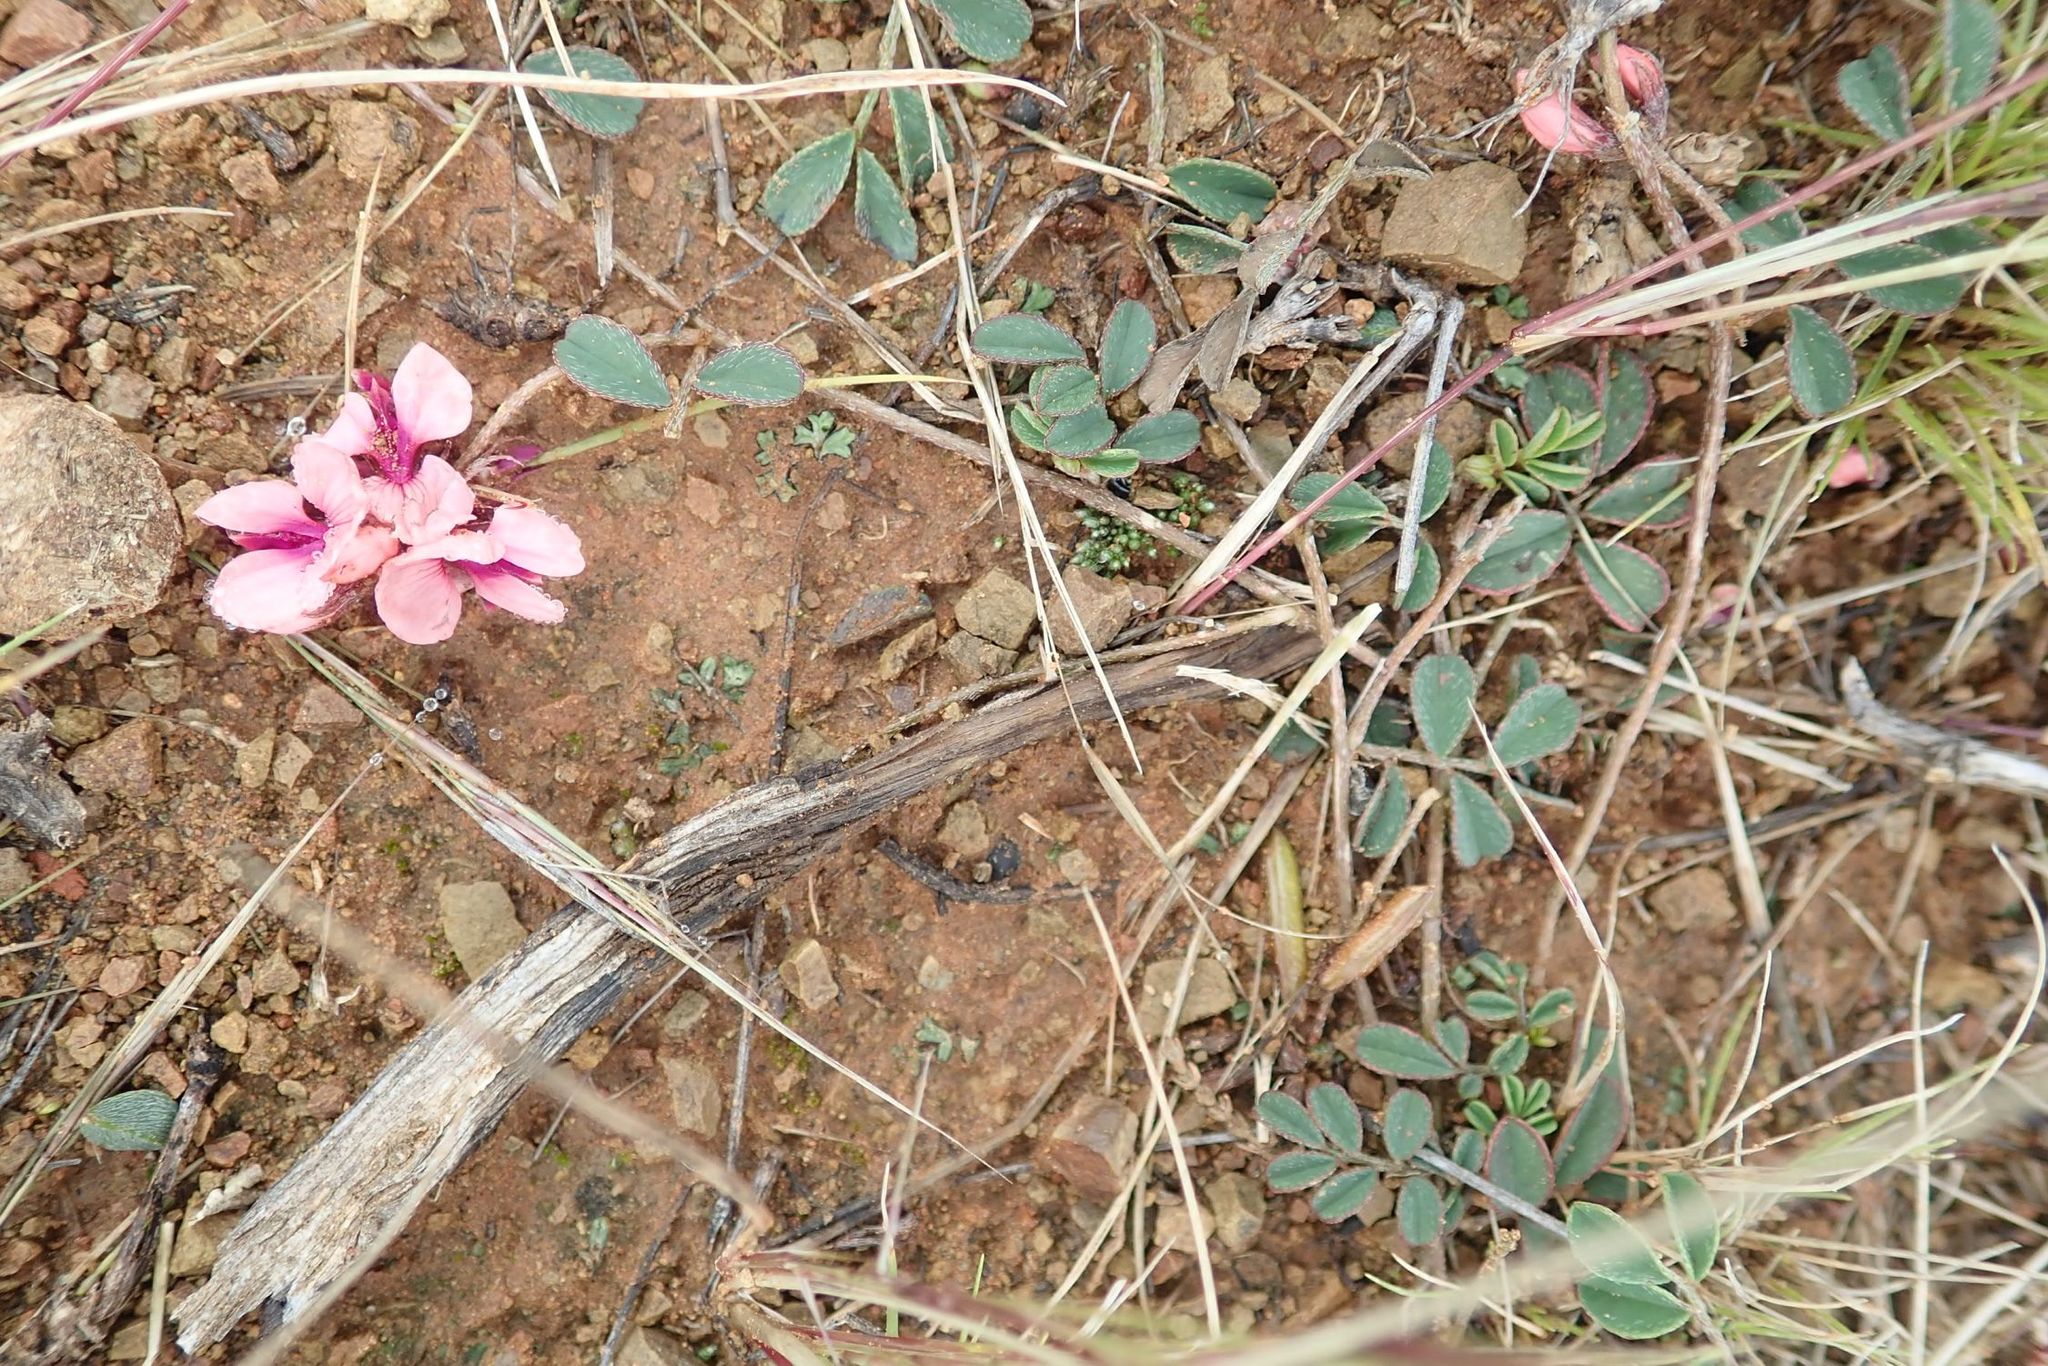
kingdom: Plantae
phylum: Tracheophyta
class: Magnoliopsida
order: Fabales
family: Fabaceae
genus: Indigofera
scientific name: Indigofera alternans
